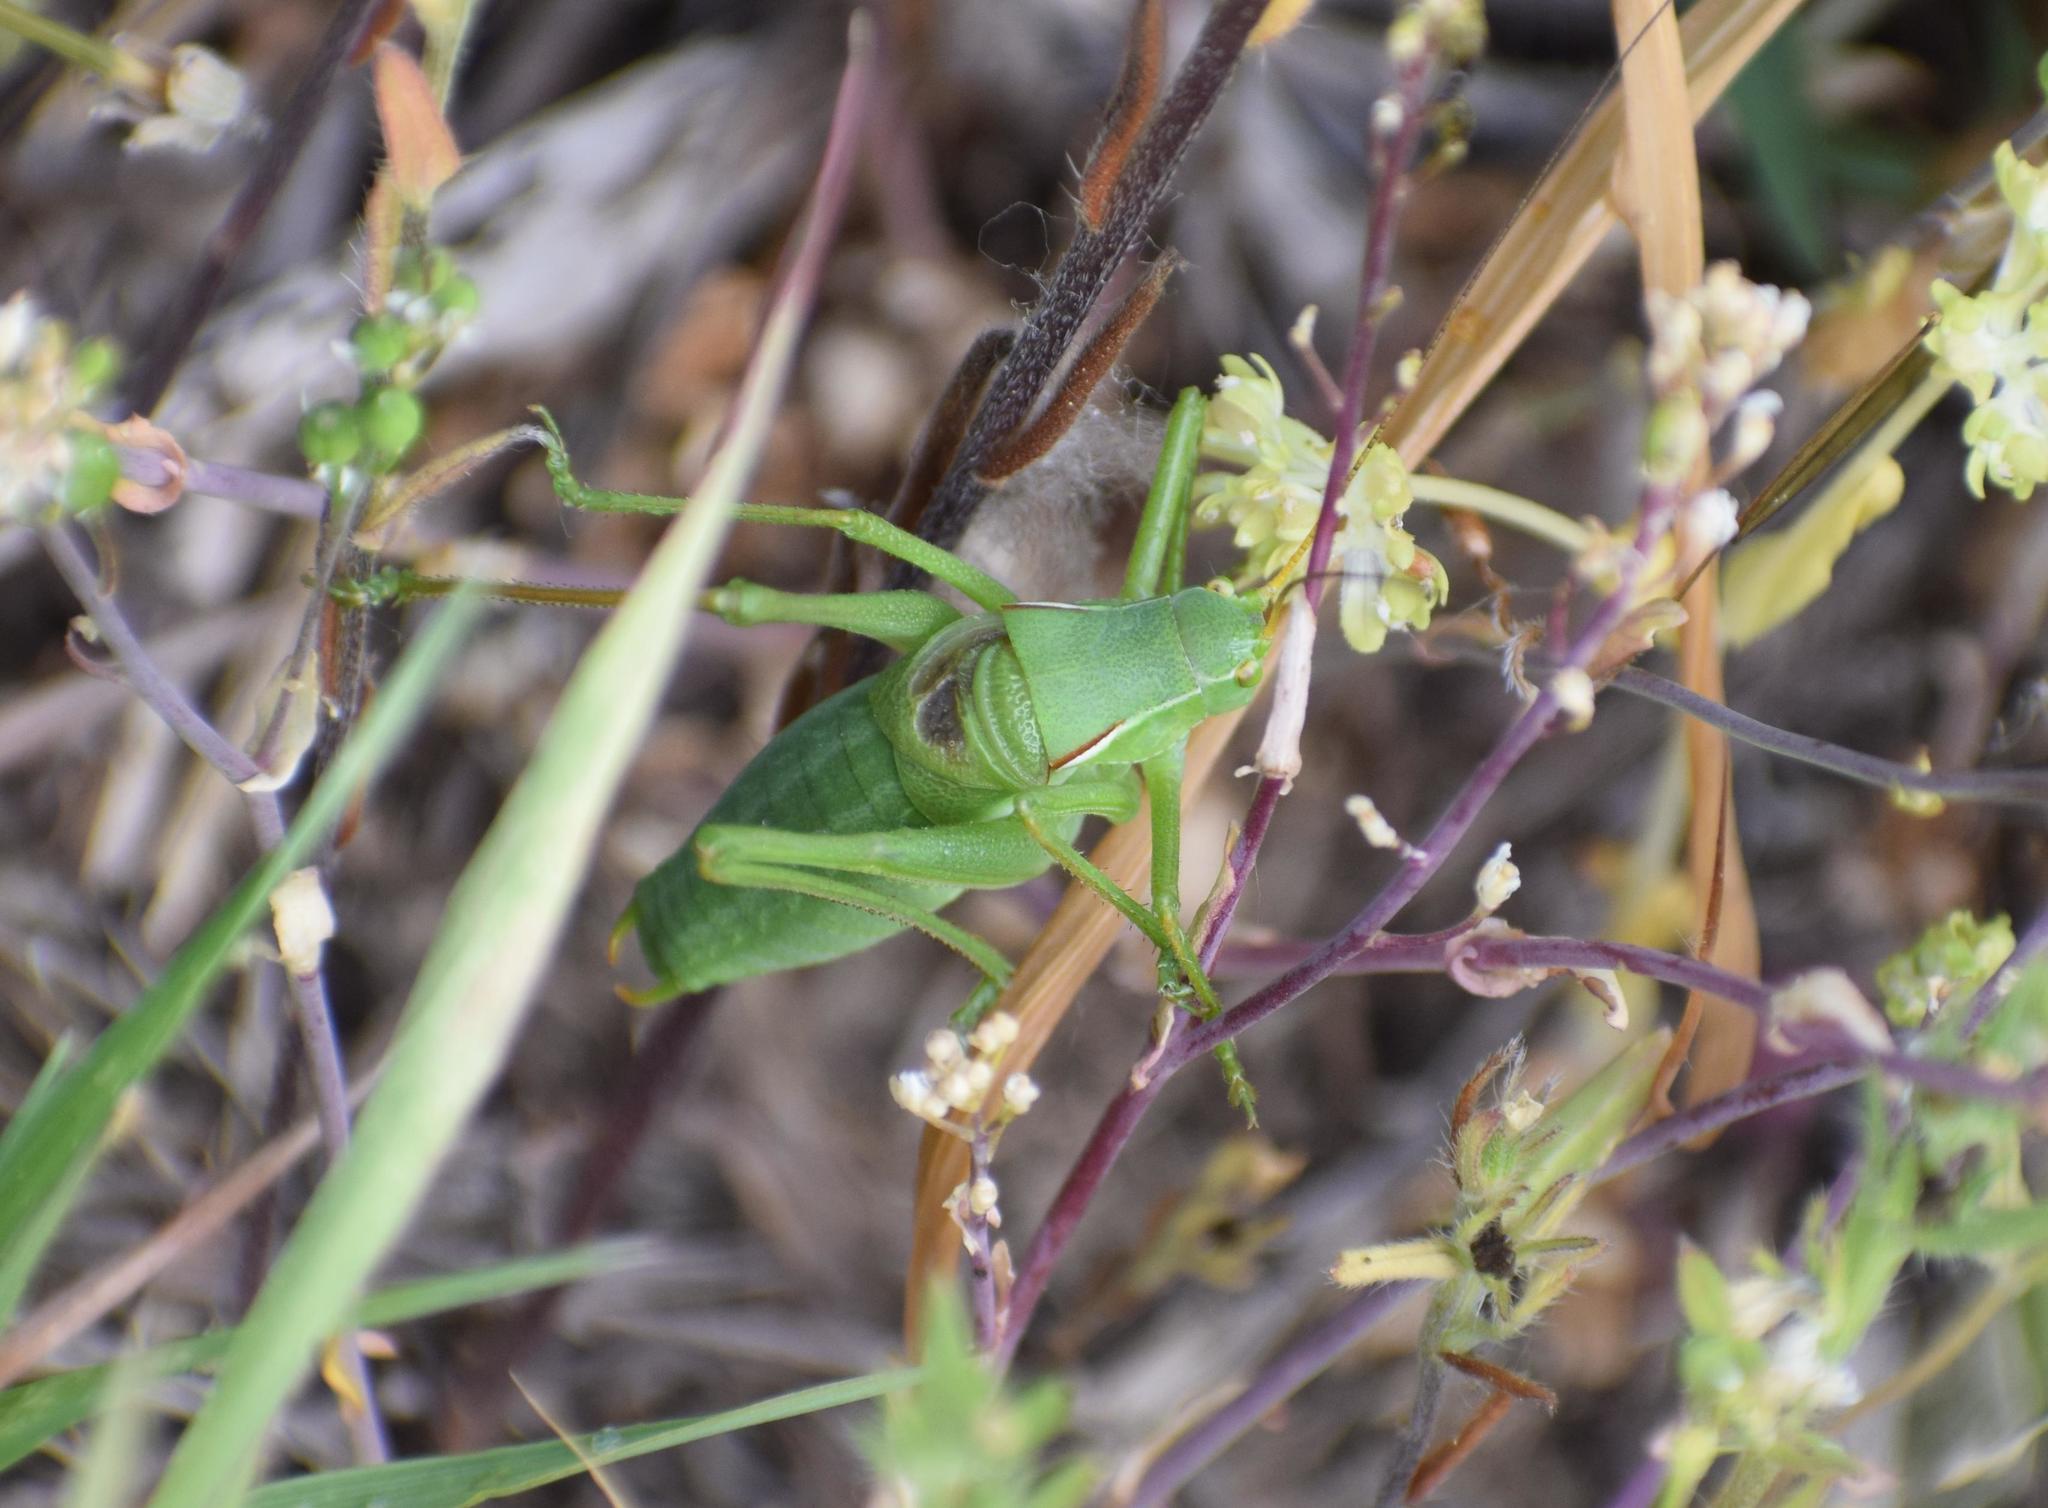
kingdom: Animalia
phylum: Arthropoda
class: Insecta
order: Orthoptera
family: Tettigoniidae
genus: Isophya
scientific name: Isophya costata
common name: Keeled plump bush-cricket
